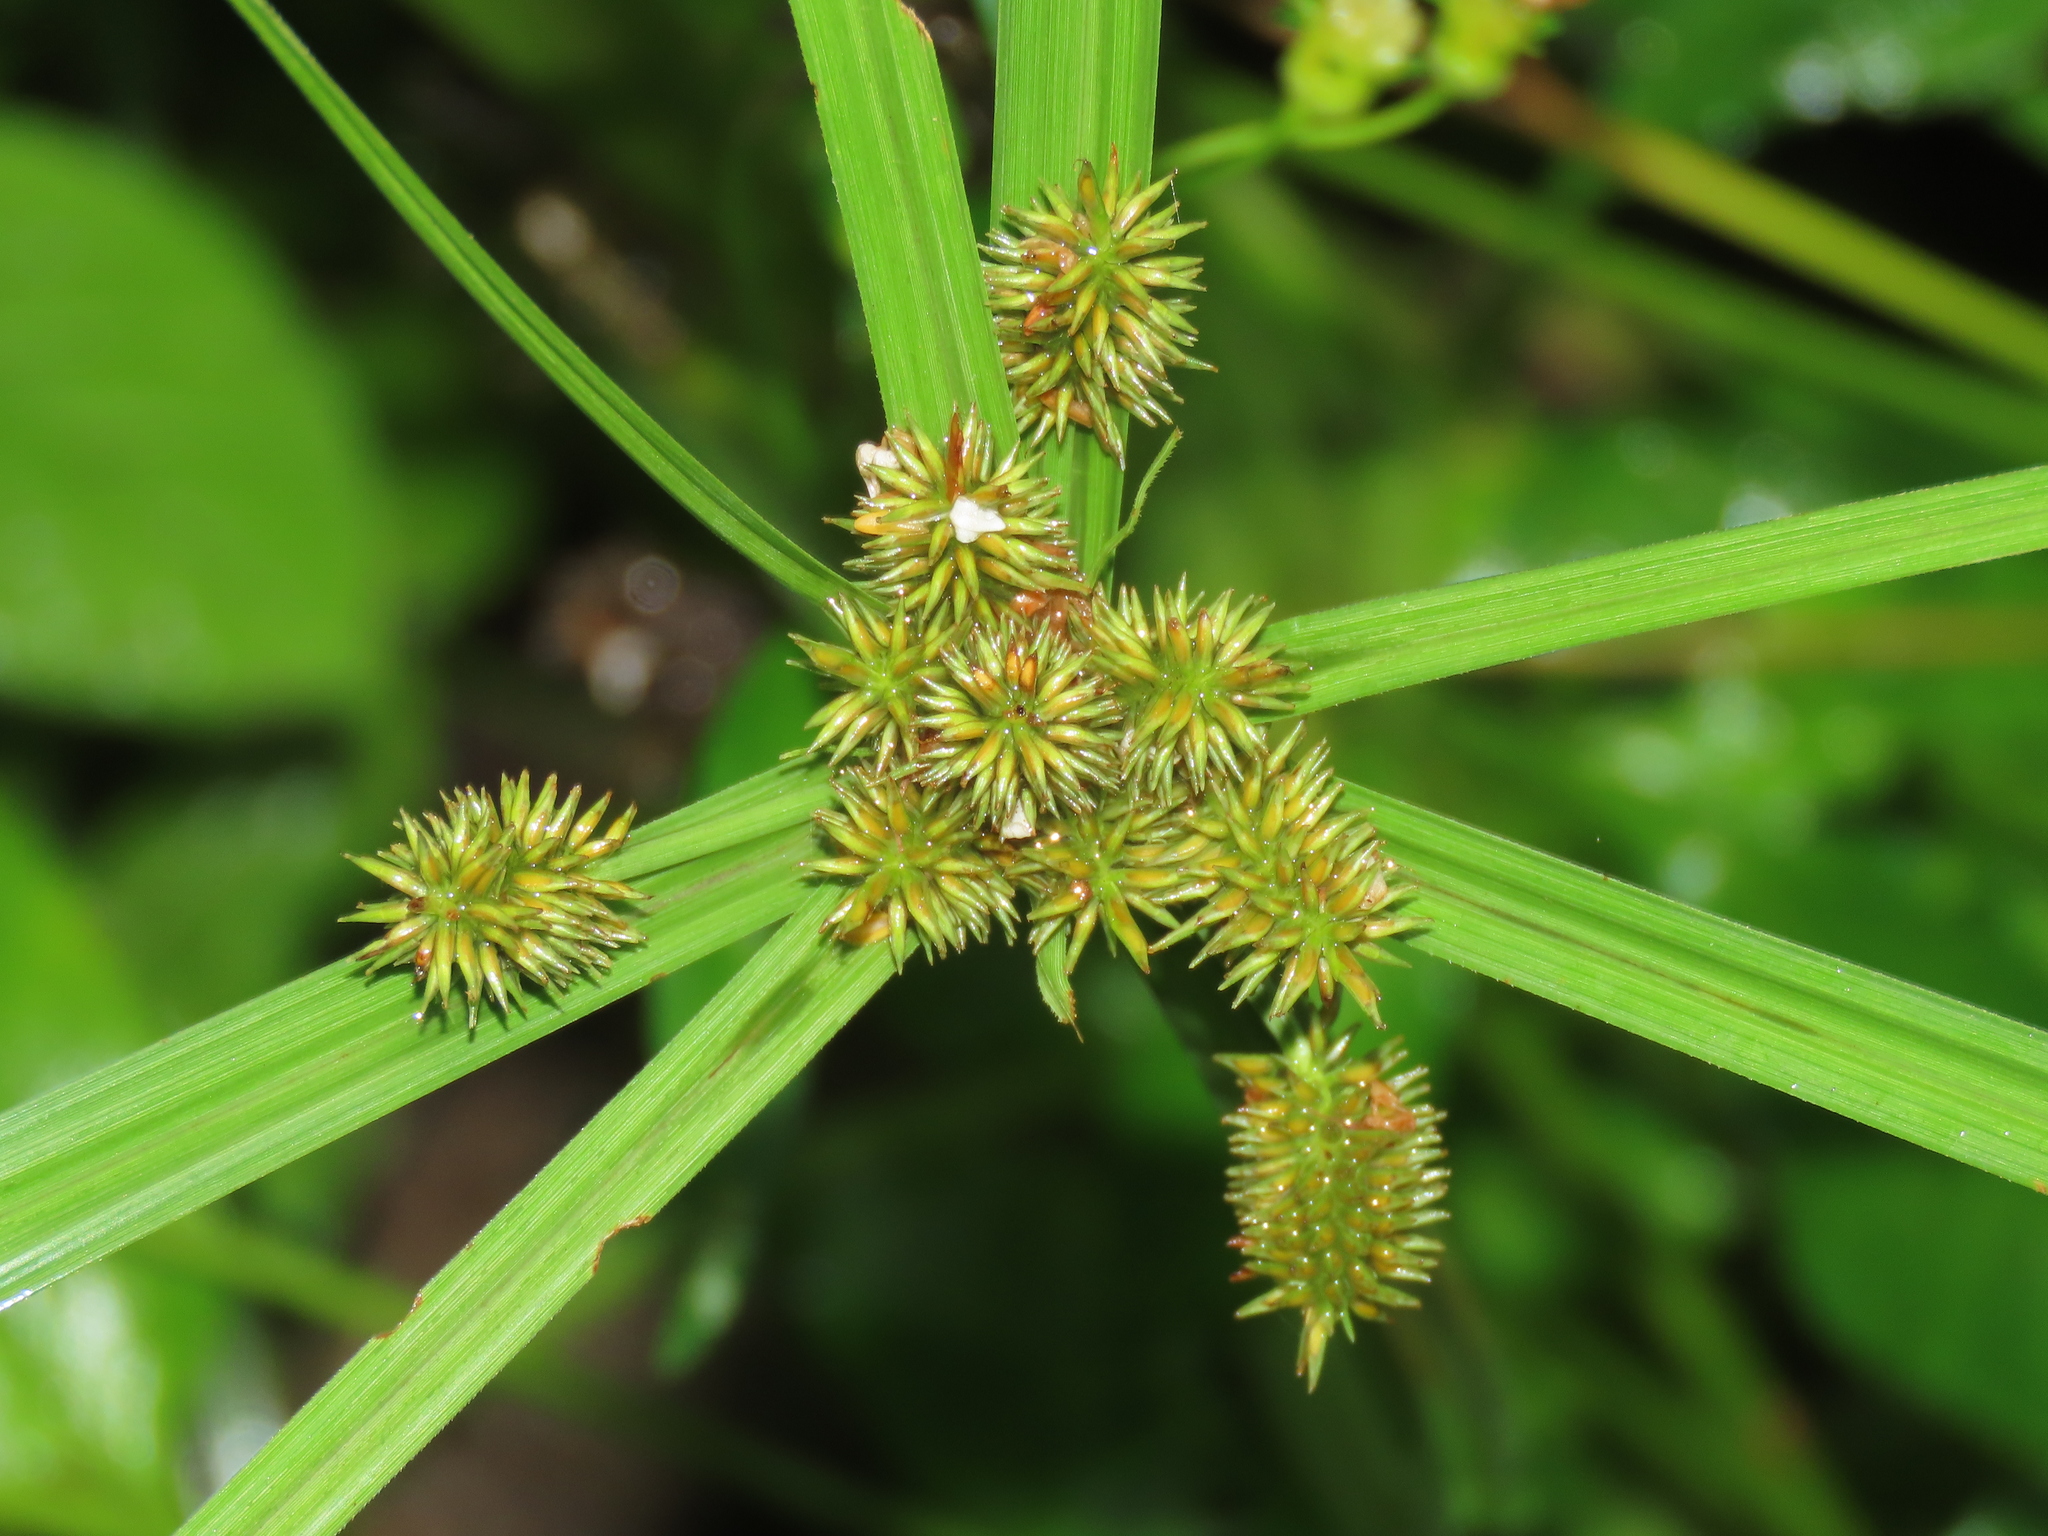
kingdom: Plantae
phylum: Tracheophyta
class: Liliopsida
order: Poales
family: Cyperaceae
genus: Cyperus
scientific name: Cyperus cyperoides
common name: Pacific island flat sedge
